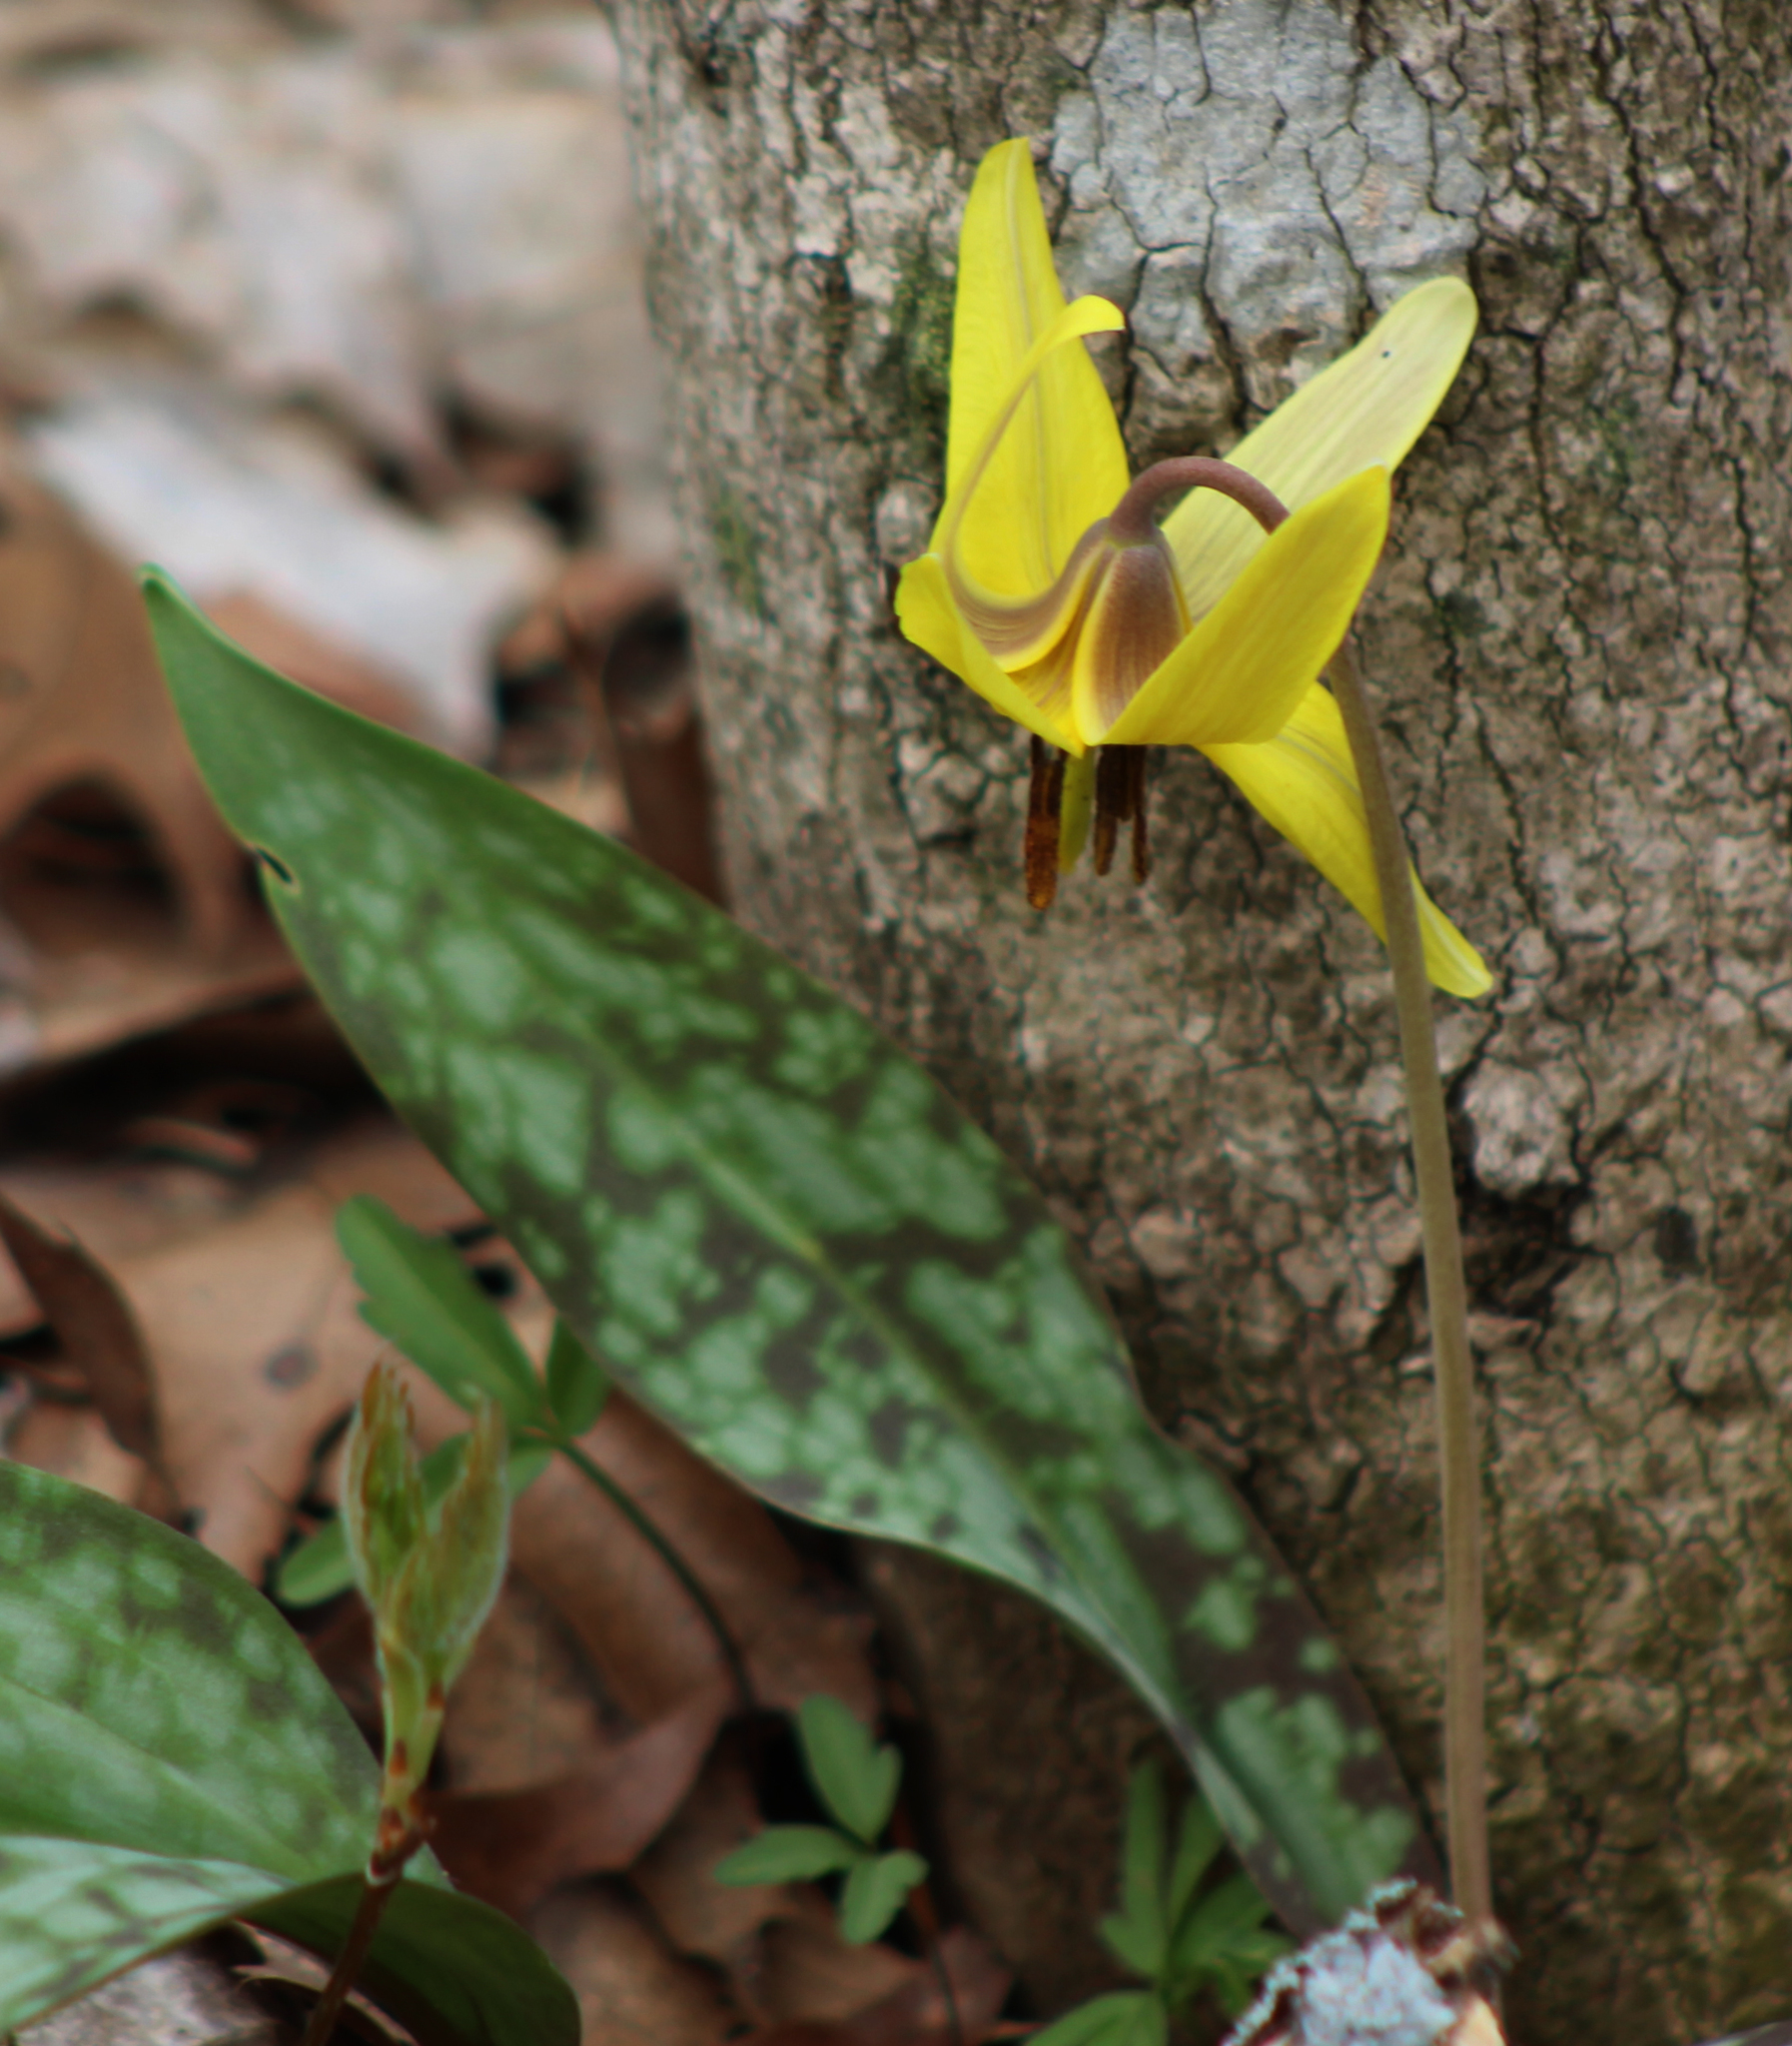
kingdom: Plantae
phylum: Tracheophyta
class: Liliopsida
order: Liliales
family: Liliaceae
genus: Erythronium
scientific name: Erythronium americanum
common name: Yellow adder's-tongue
